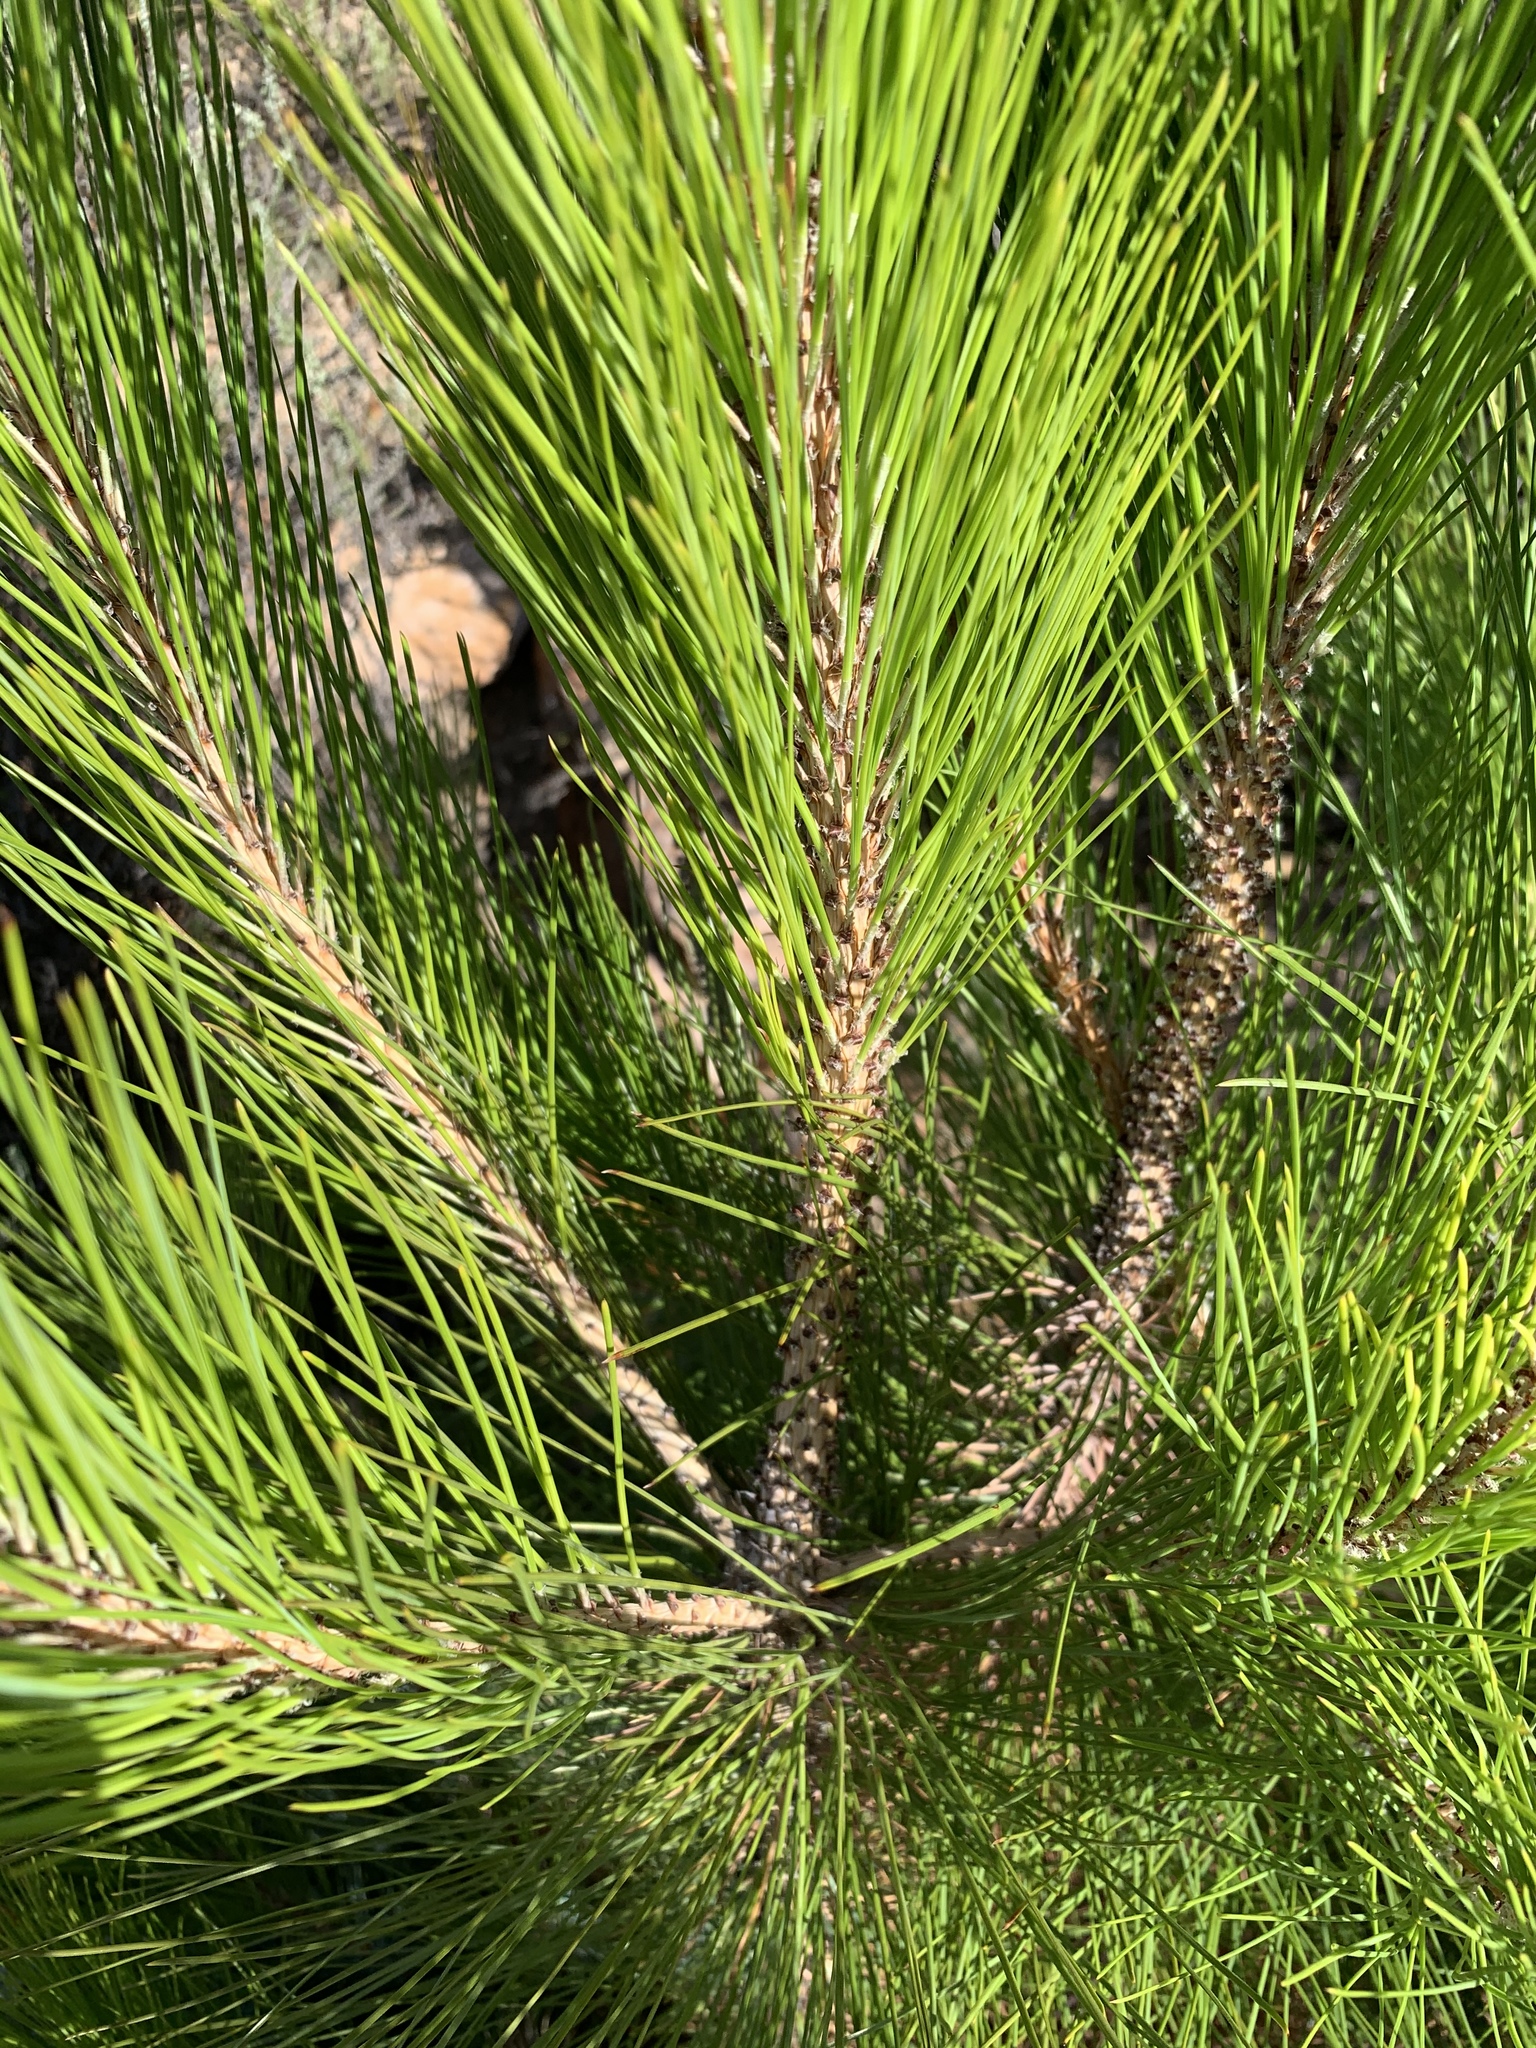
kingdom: Plantae
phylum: Tracheophyta
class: Pinopsida
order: Pinales
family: Pinaceae
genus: Pinus
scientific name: Pinus canariensis
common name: Canary islands pine
